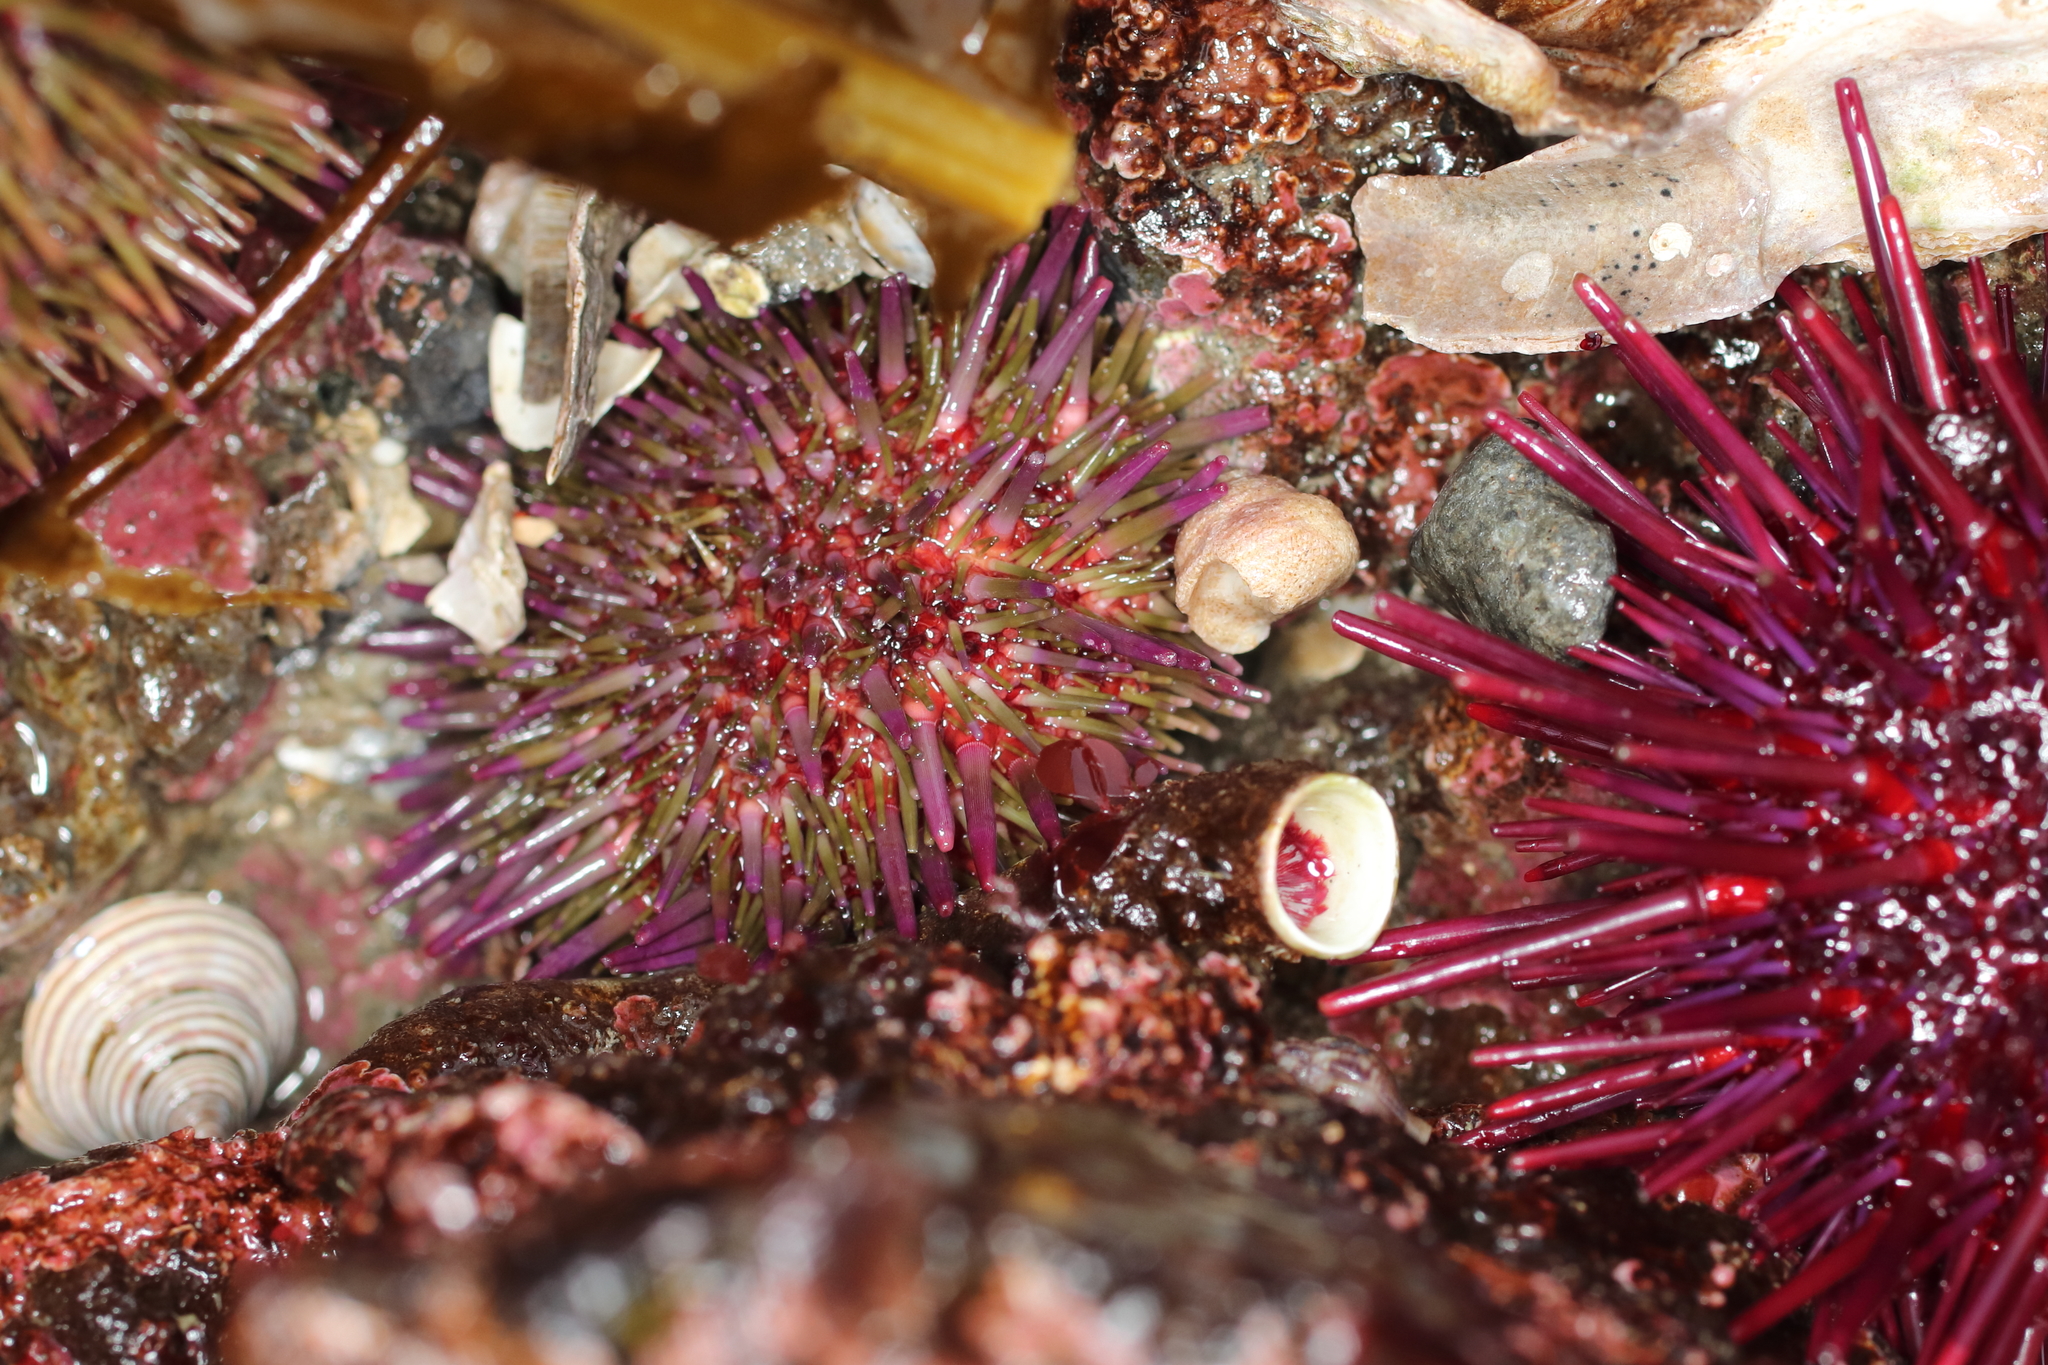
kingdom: Animalia
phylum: Echinodermata
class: Echinoidea
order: Camarodonta
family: Strongylocentrotidae
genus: Strongylocentrotus
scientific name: Strongylocentrotus purpuratus
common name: Purple sea urchin
